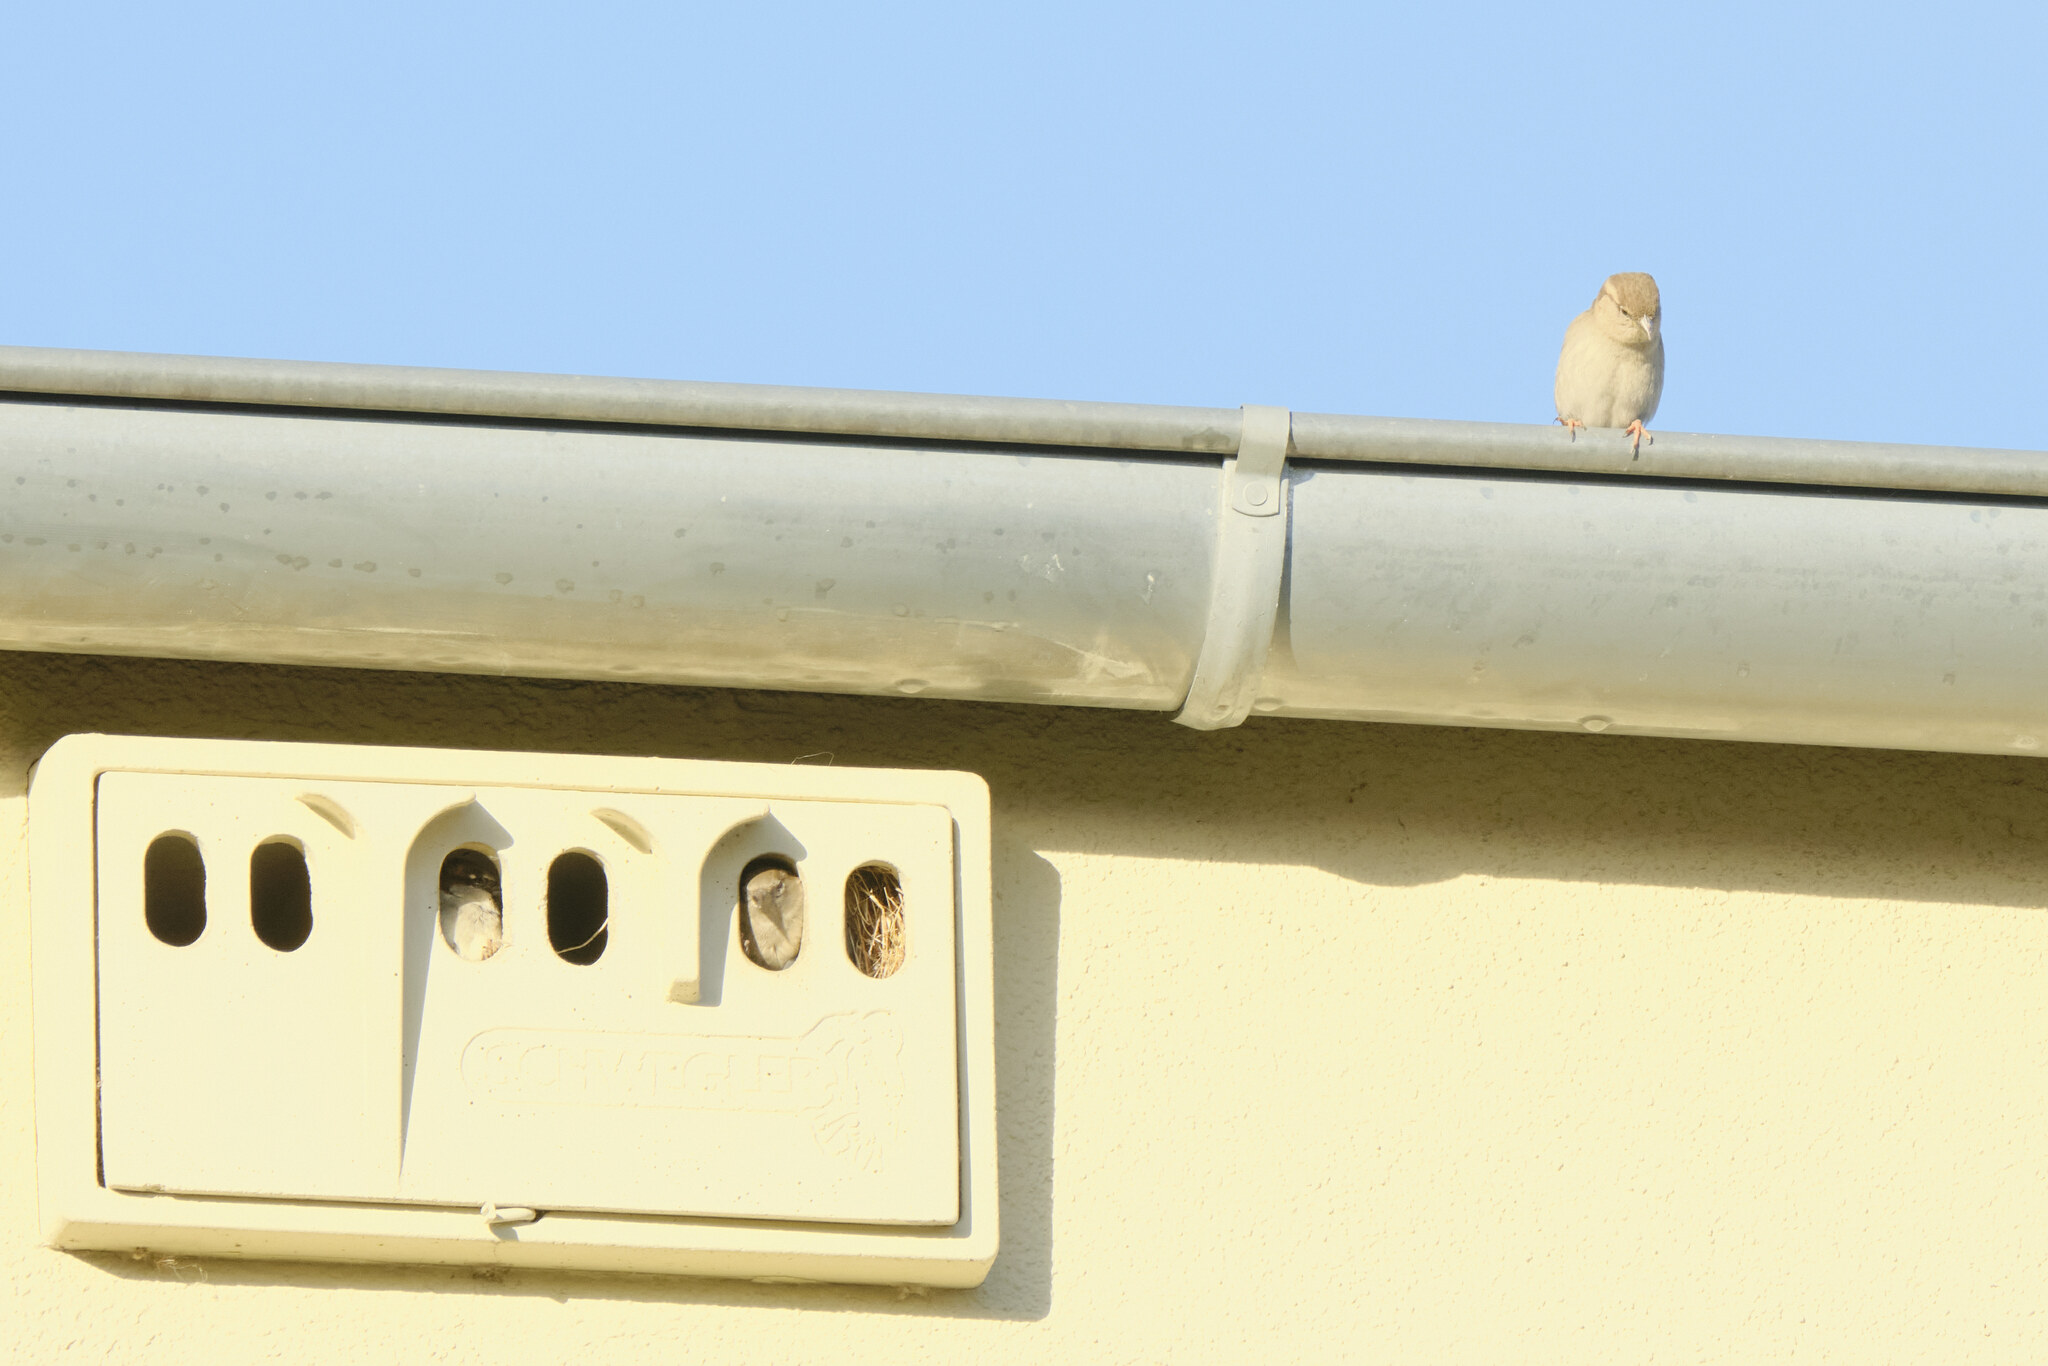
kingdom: Animalia
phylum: Chordata
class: Aves
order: Passeriformes
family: Passeridae
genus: Passer
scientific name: Passer domesticus
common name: House sparrow
